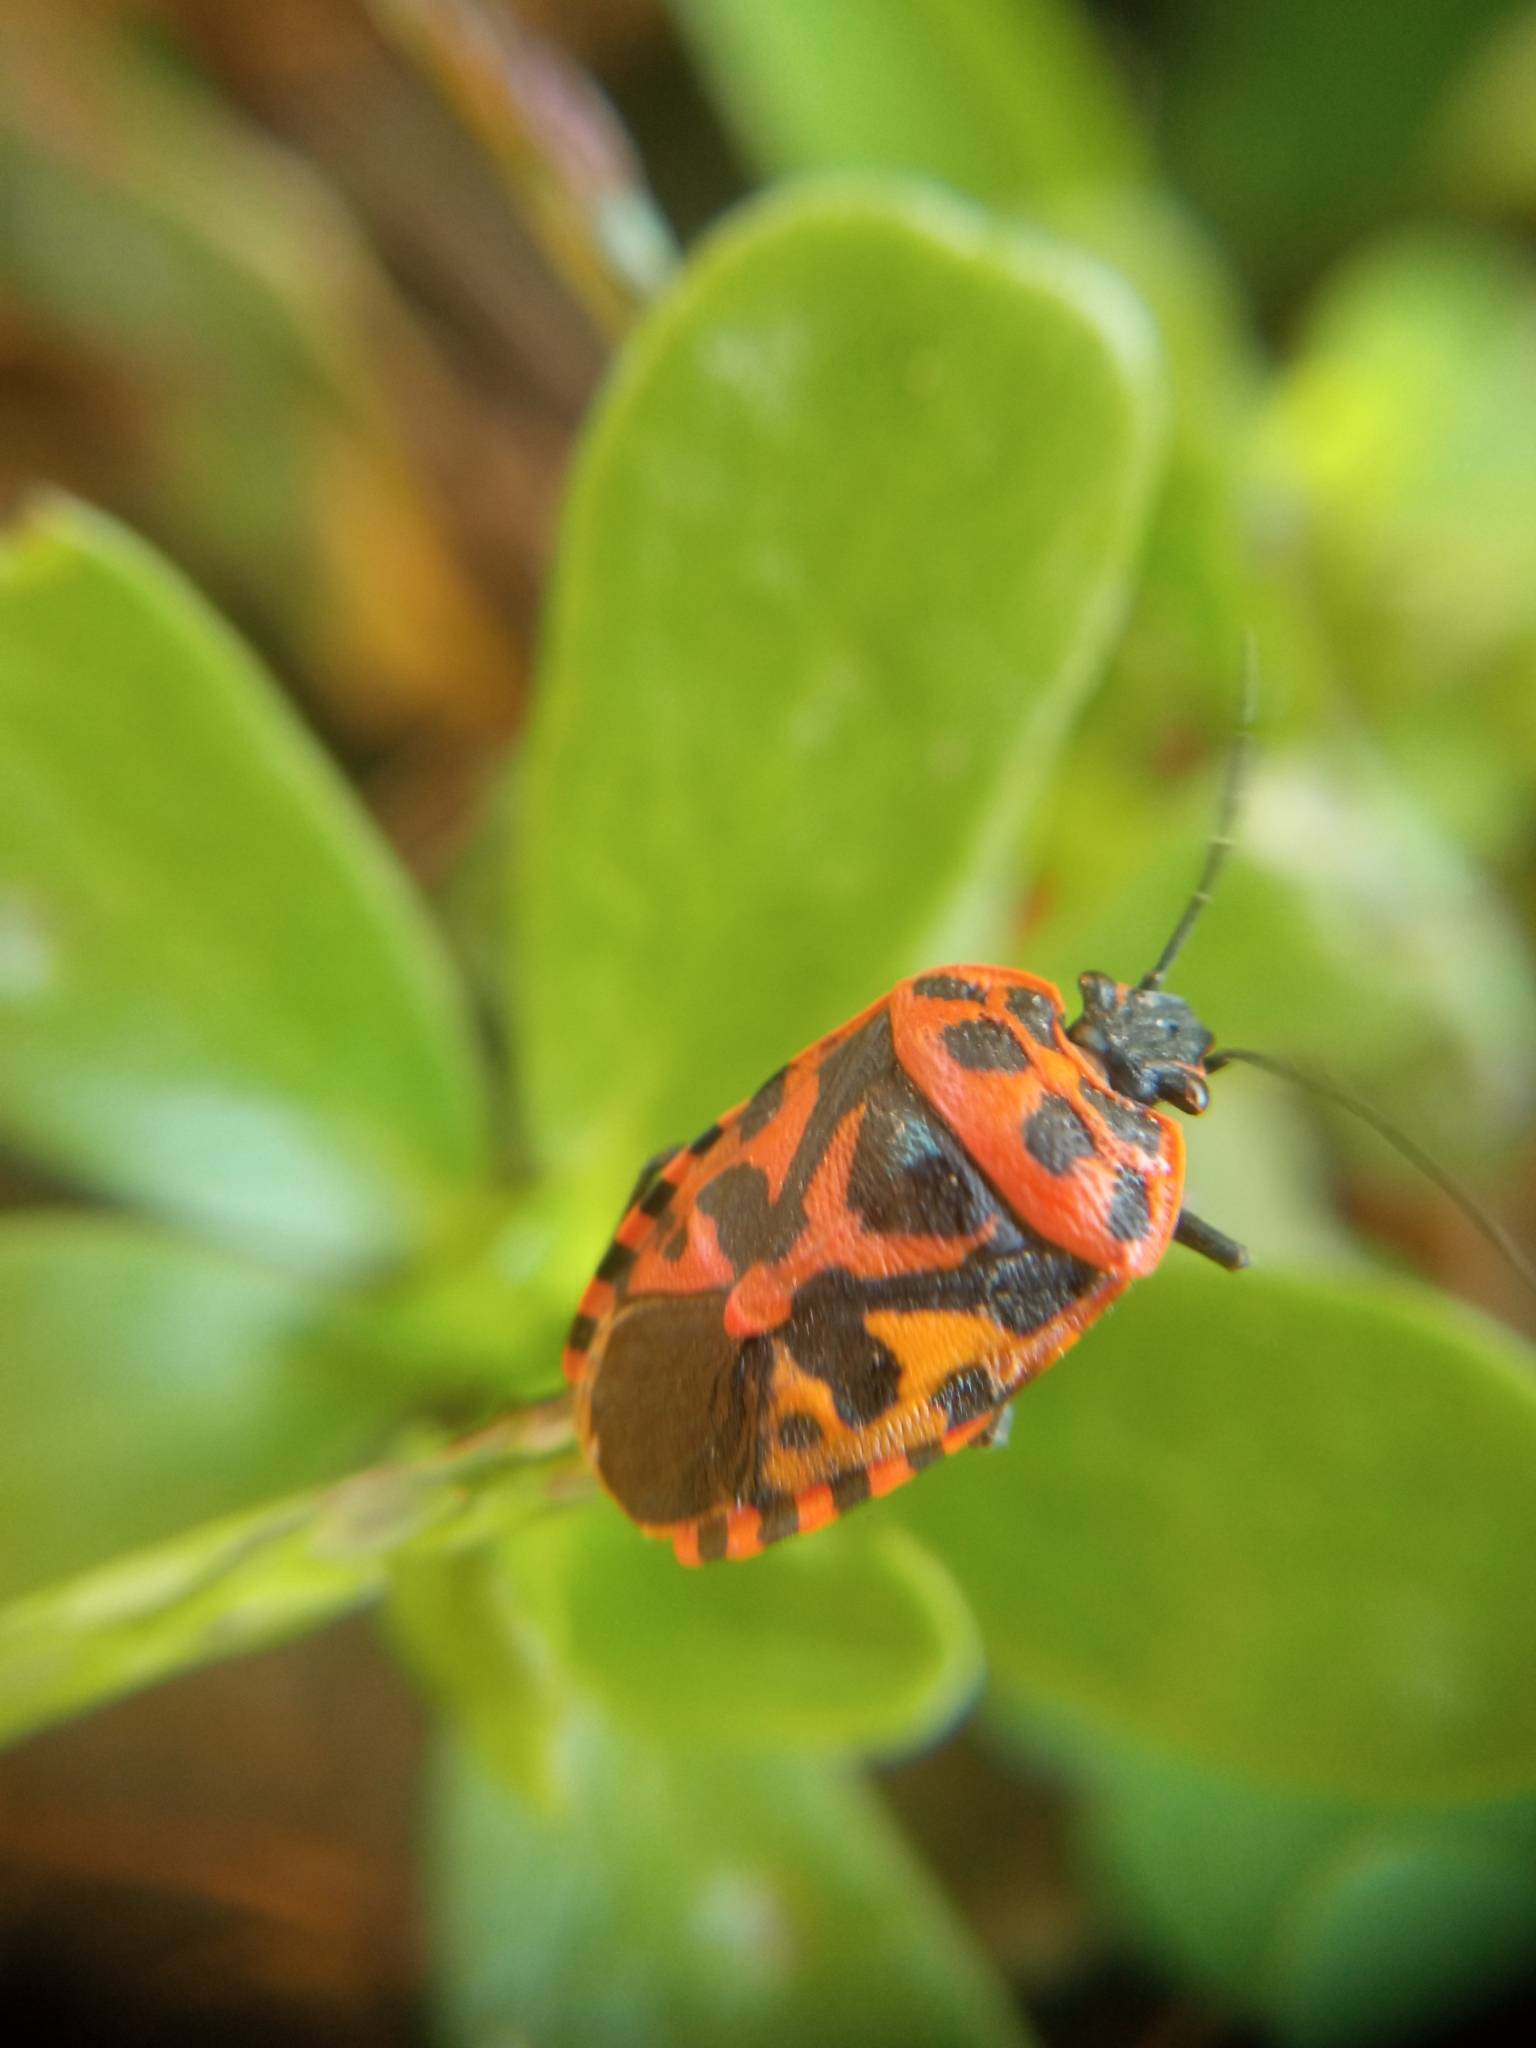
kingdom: Animalia
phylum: Arthropoda
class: Insecta
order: Hemiptera
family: Pentatomidae
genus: Eurydema
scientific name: Eurydema ventralis
